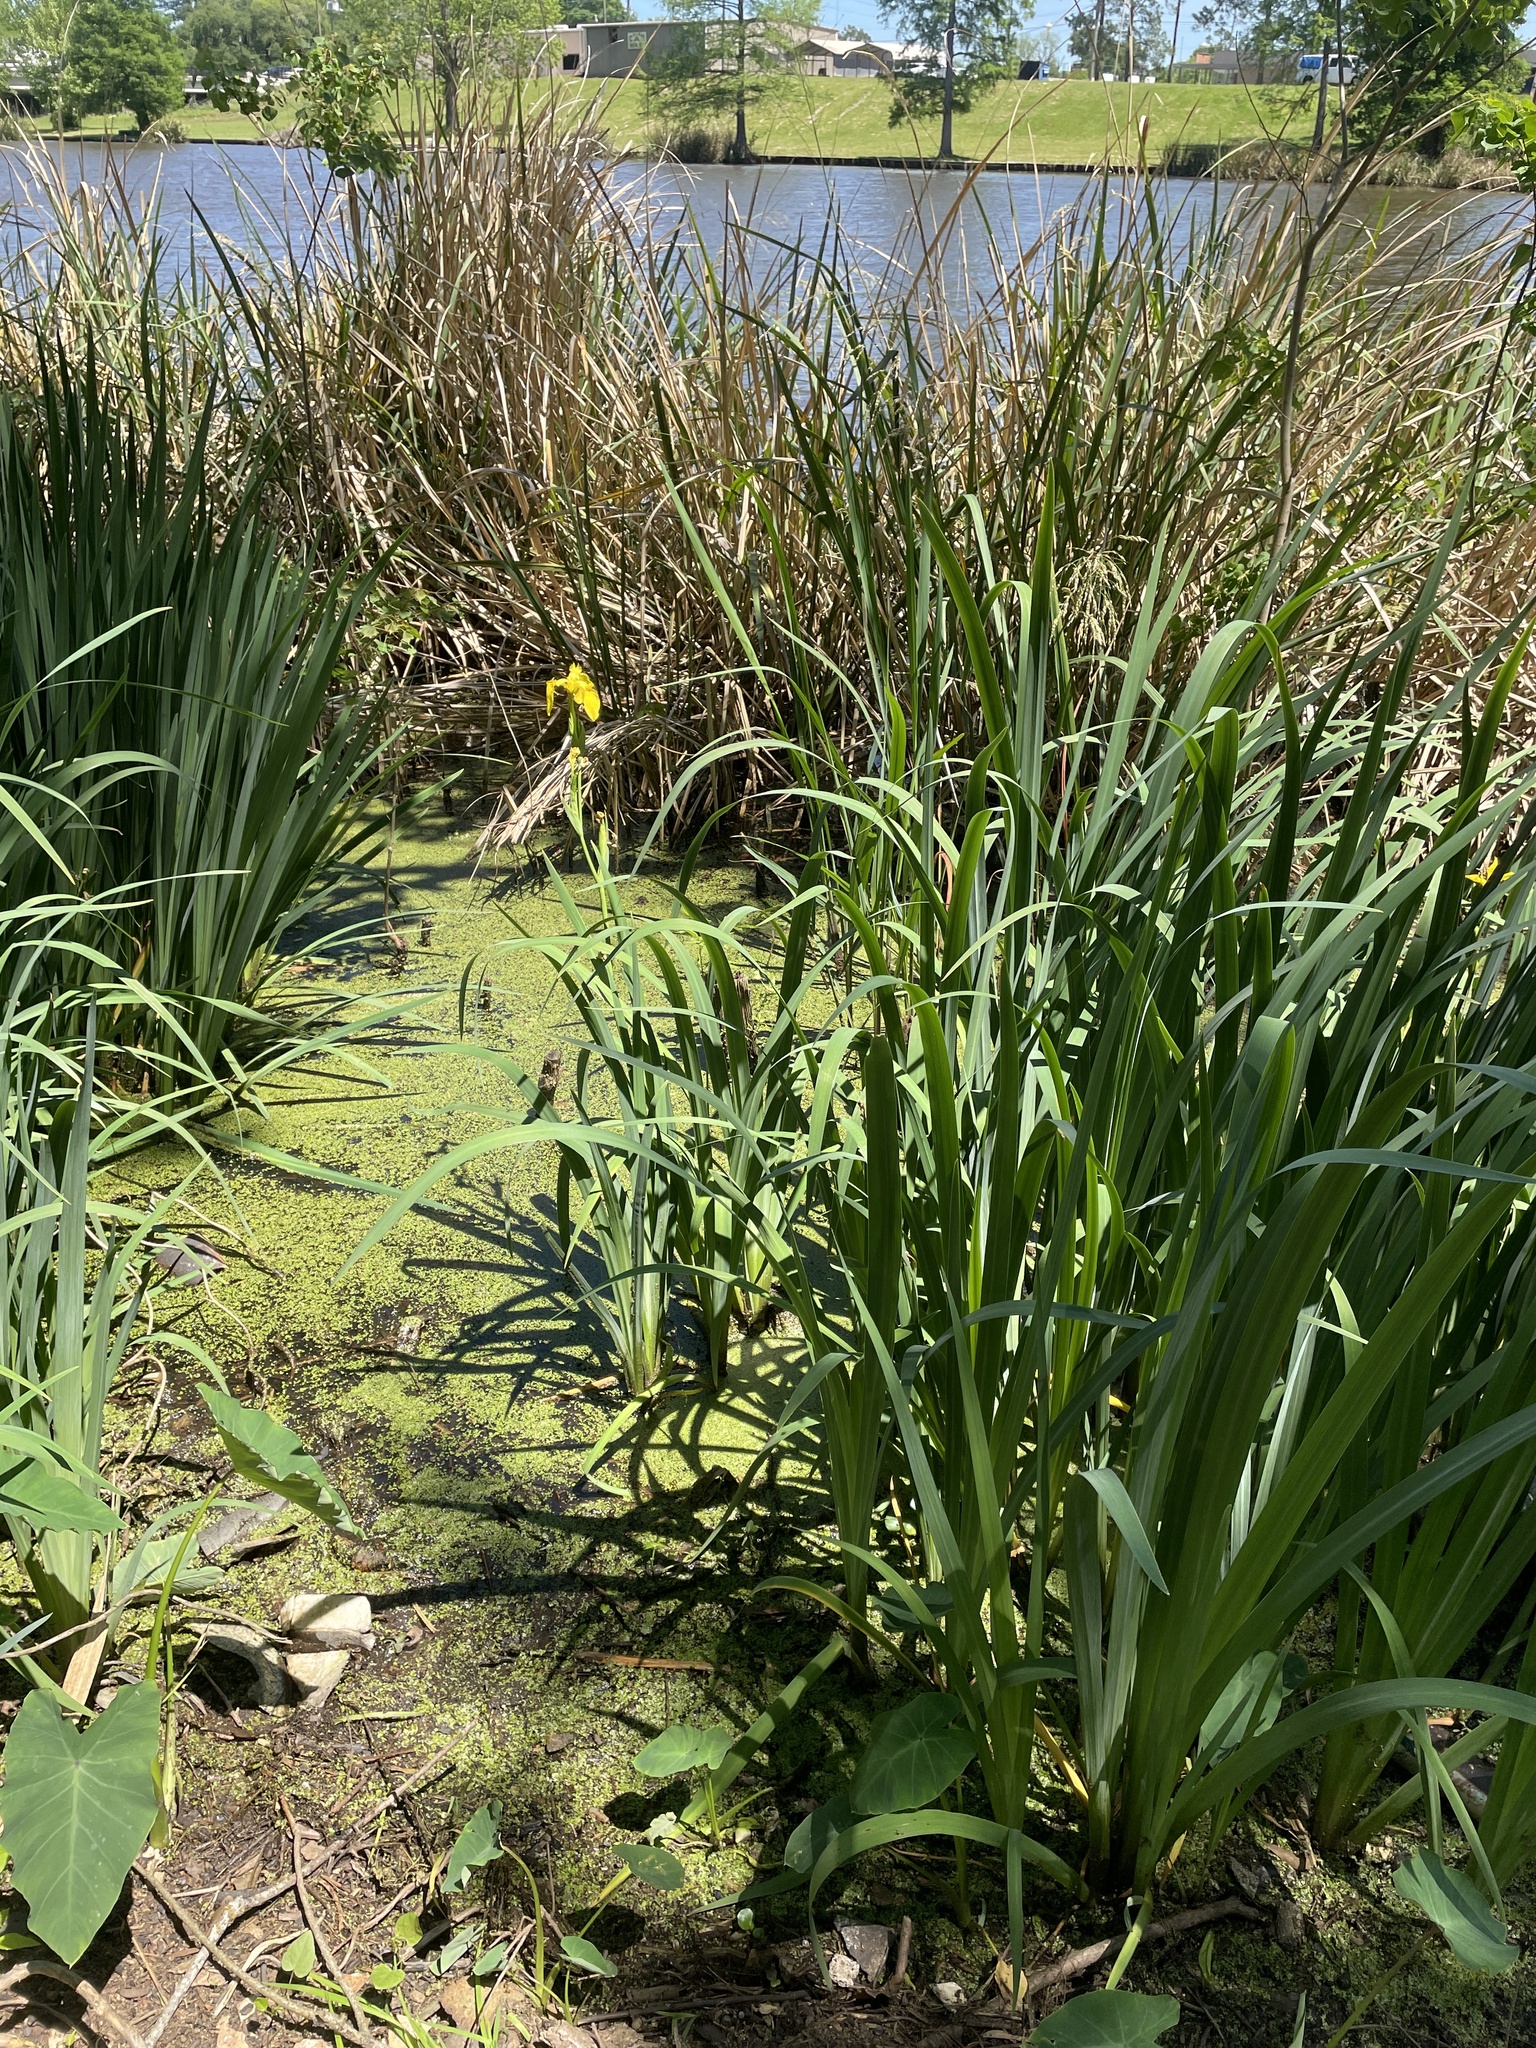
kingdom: Plantae
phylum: Tracheophyta
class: Liliopsida
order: Asparagales
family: Iridaceae
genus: Iris
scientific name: Iris pseudacorus
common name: Yellow flag
